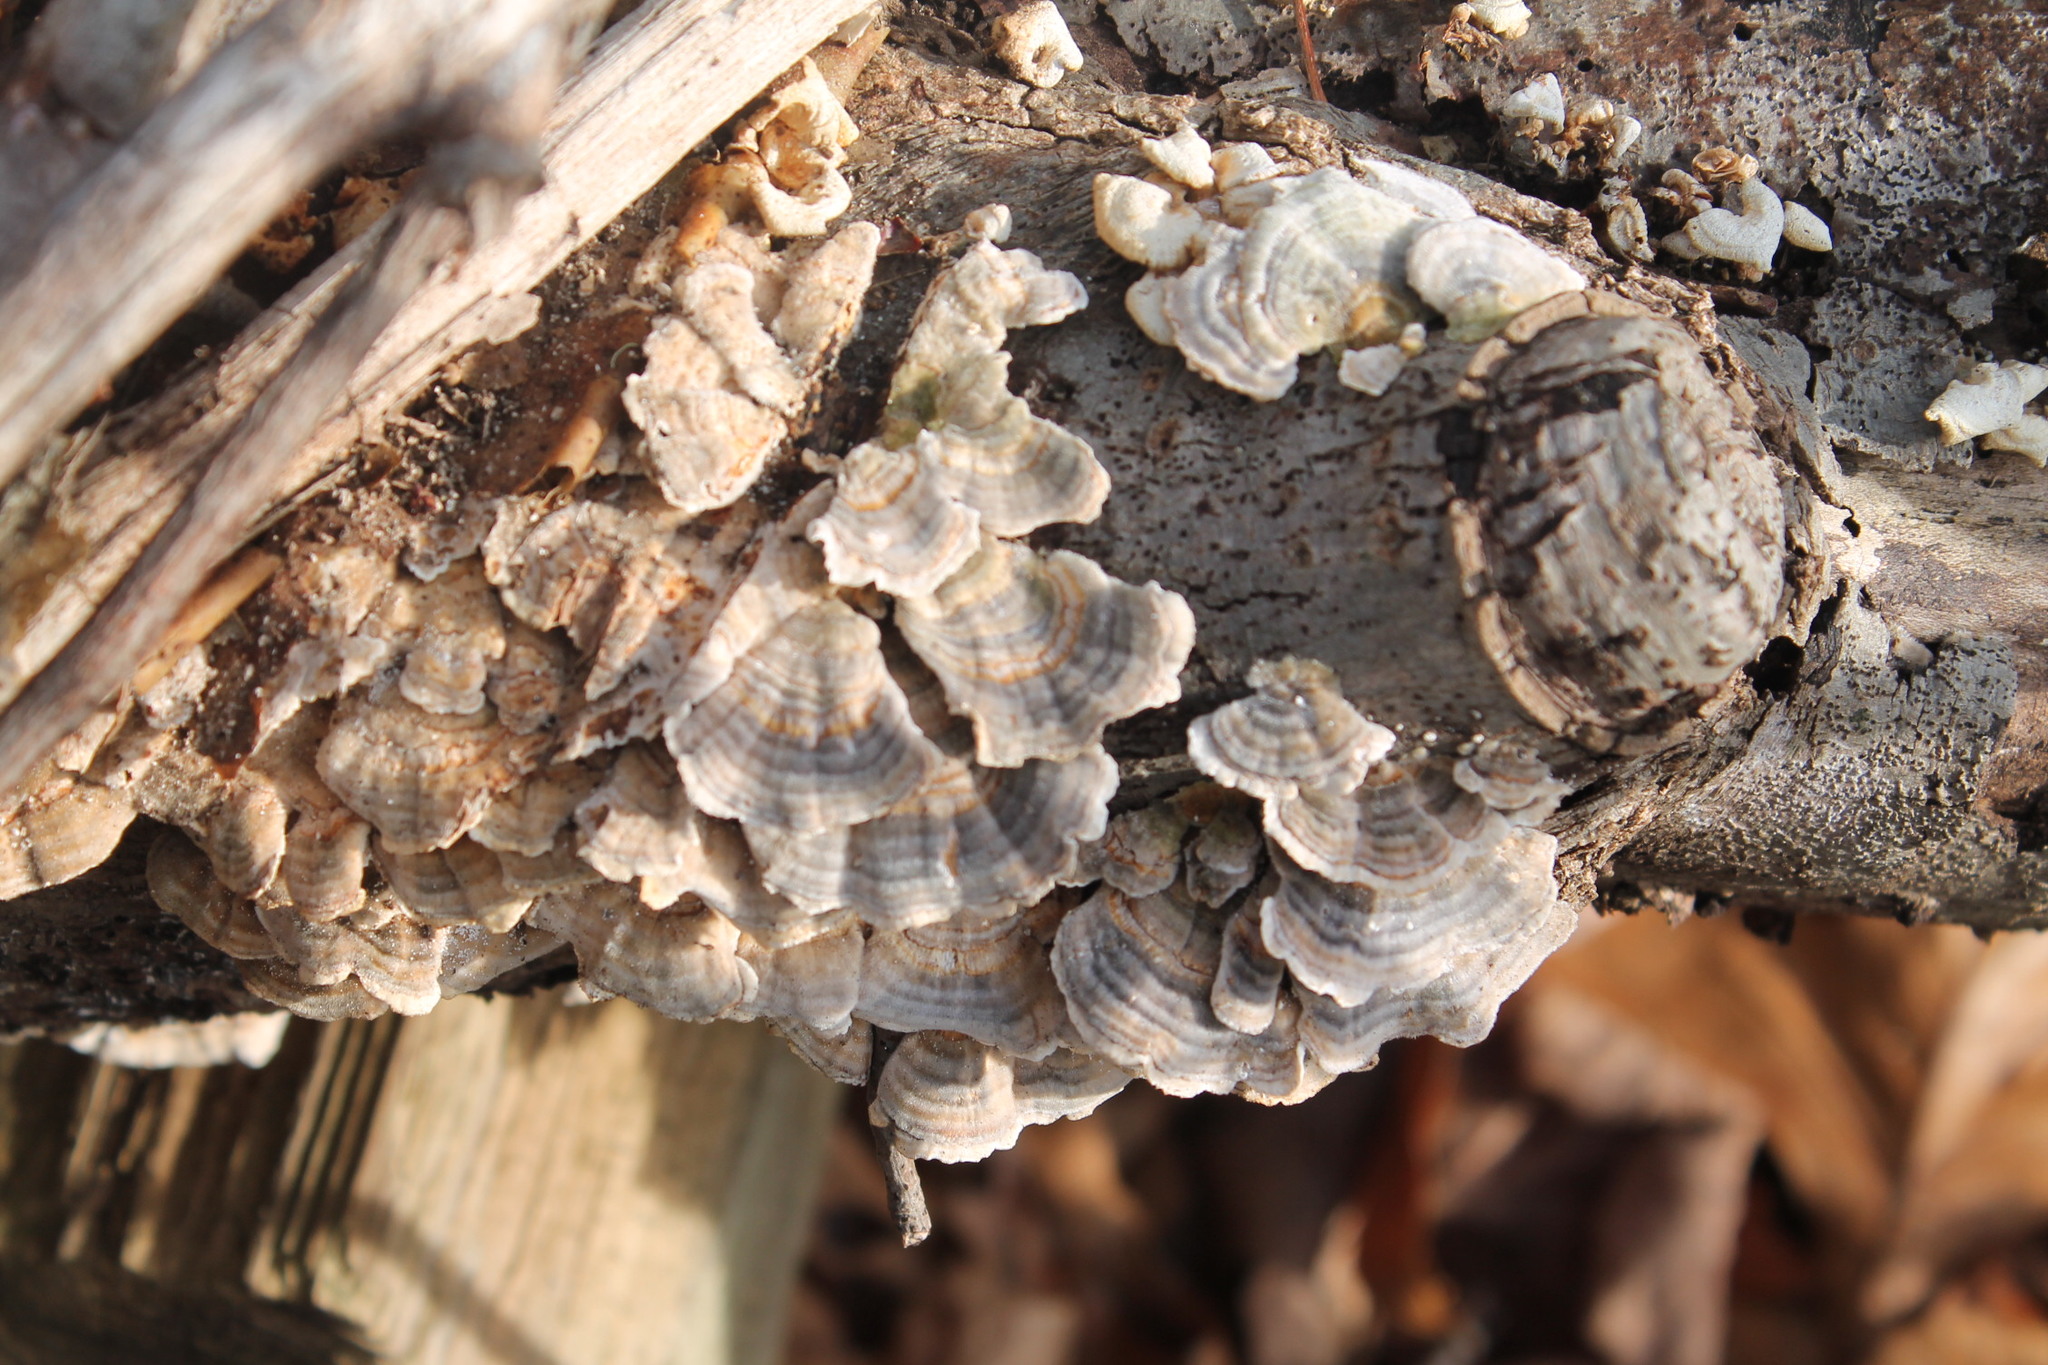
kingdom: Fungi
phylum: Basidiomycota
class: Agaricomycetes
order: Polyporales
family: Polyporaceae
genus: Trametes
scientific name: Trametes versicolor
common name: Turkeytail
